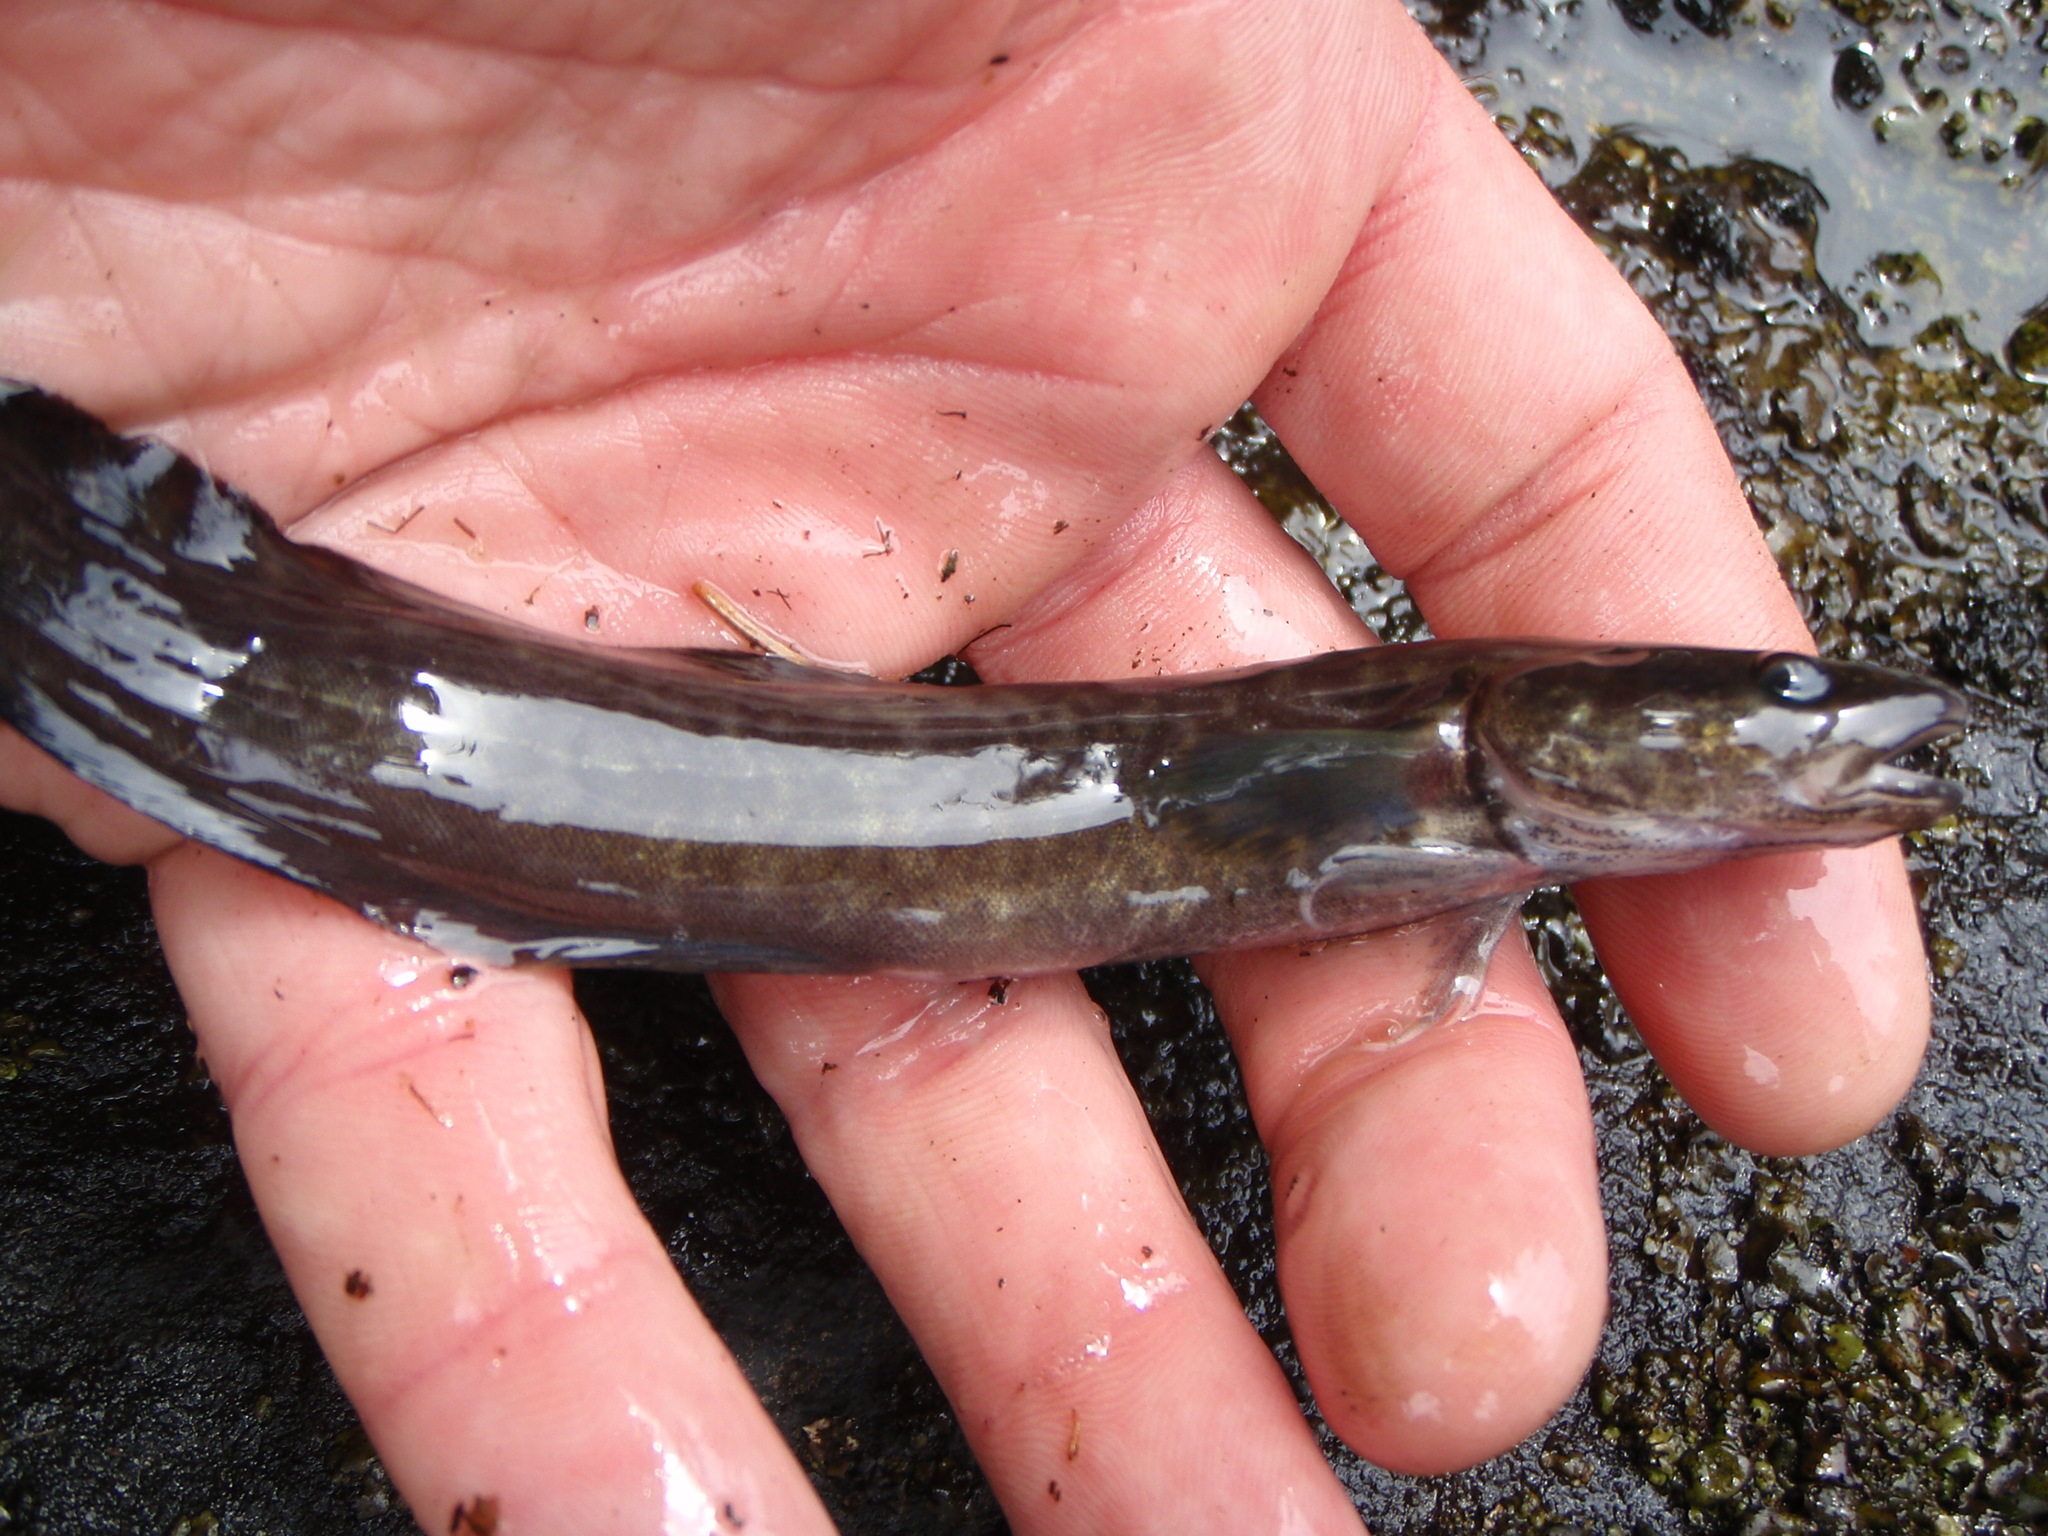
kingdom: Animalia
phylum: Chordata
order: Gadiformes
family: Lotidae
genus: Lota
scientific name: Lota lota
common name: Burbot
